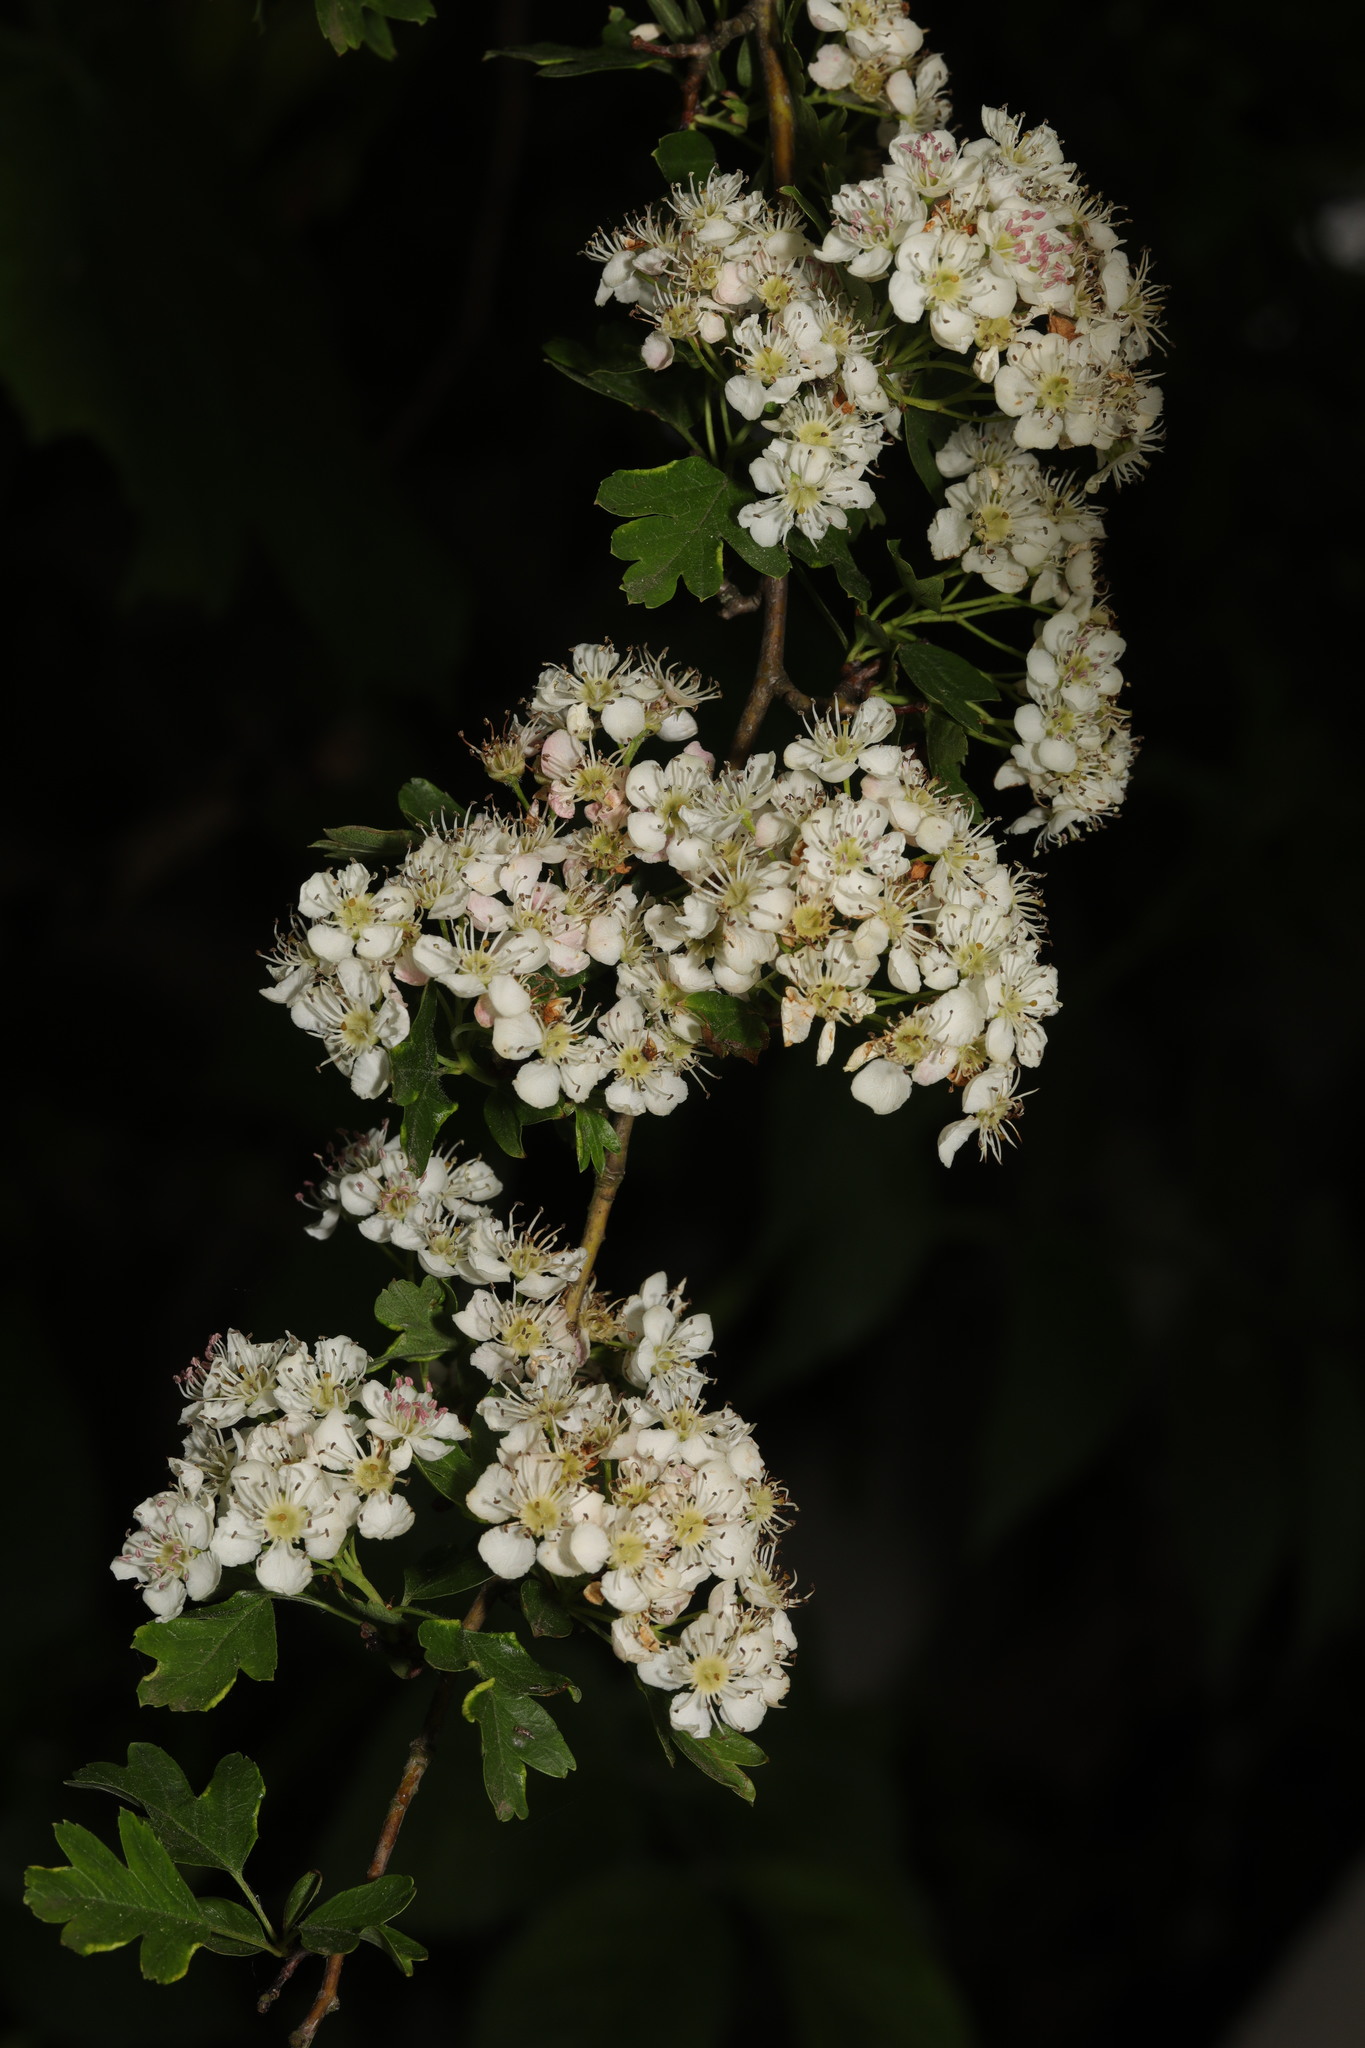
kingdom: Plantae
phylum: Tracheophyta
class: Magnoliopsida
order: Rosales
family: Rosaceae
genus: Crataegus
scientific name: Crataegus monogyna
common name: Hawthorn
